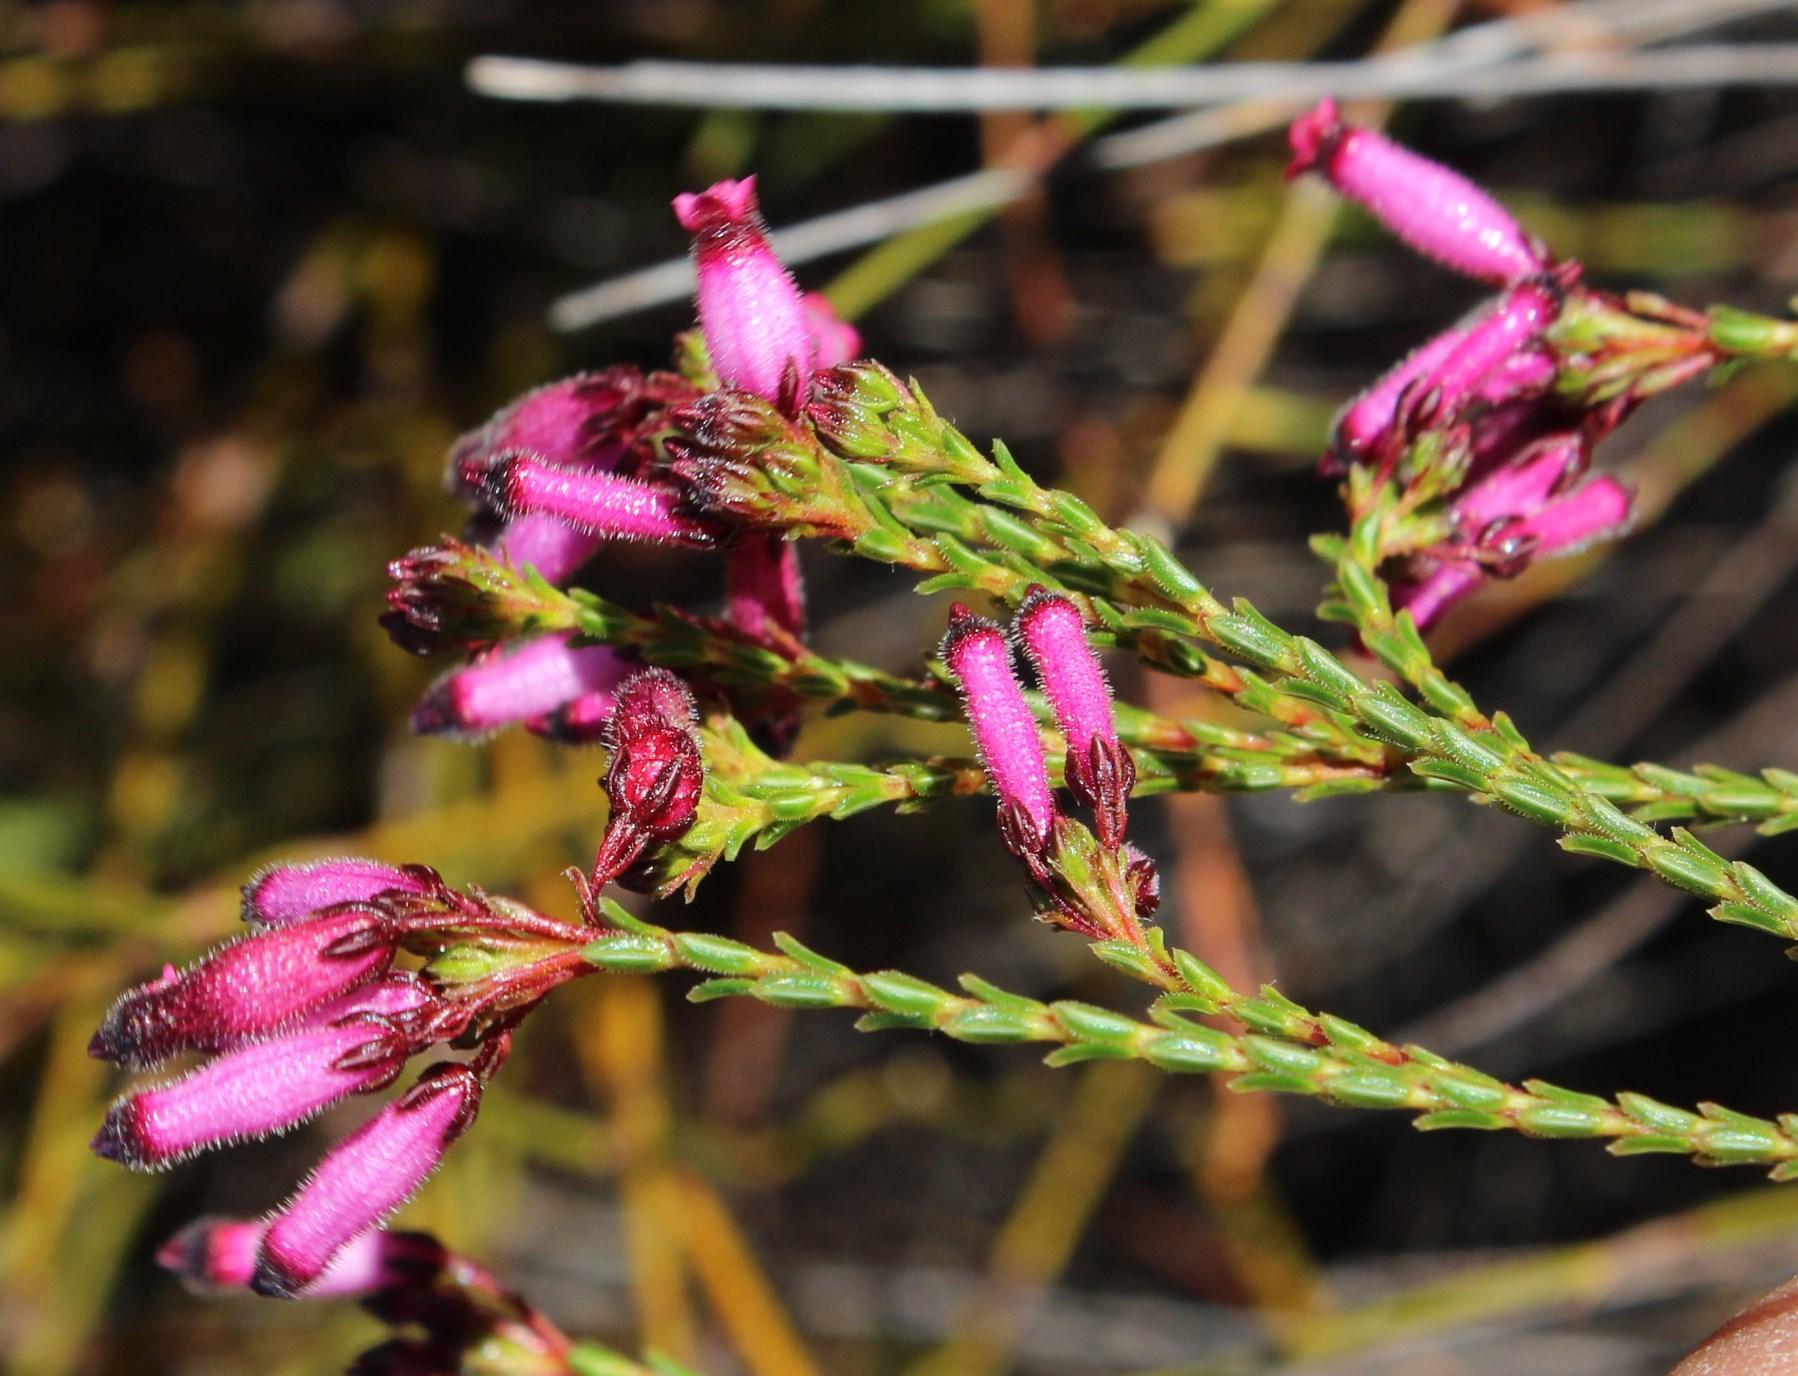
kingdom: Plantae
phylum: Tracheophyta
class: Magnoliopsida
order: Ericales
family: Ericaceae
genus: Erica
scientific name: Erica cristata
